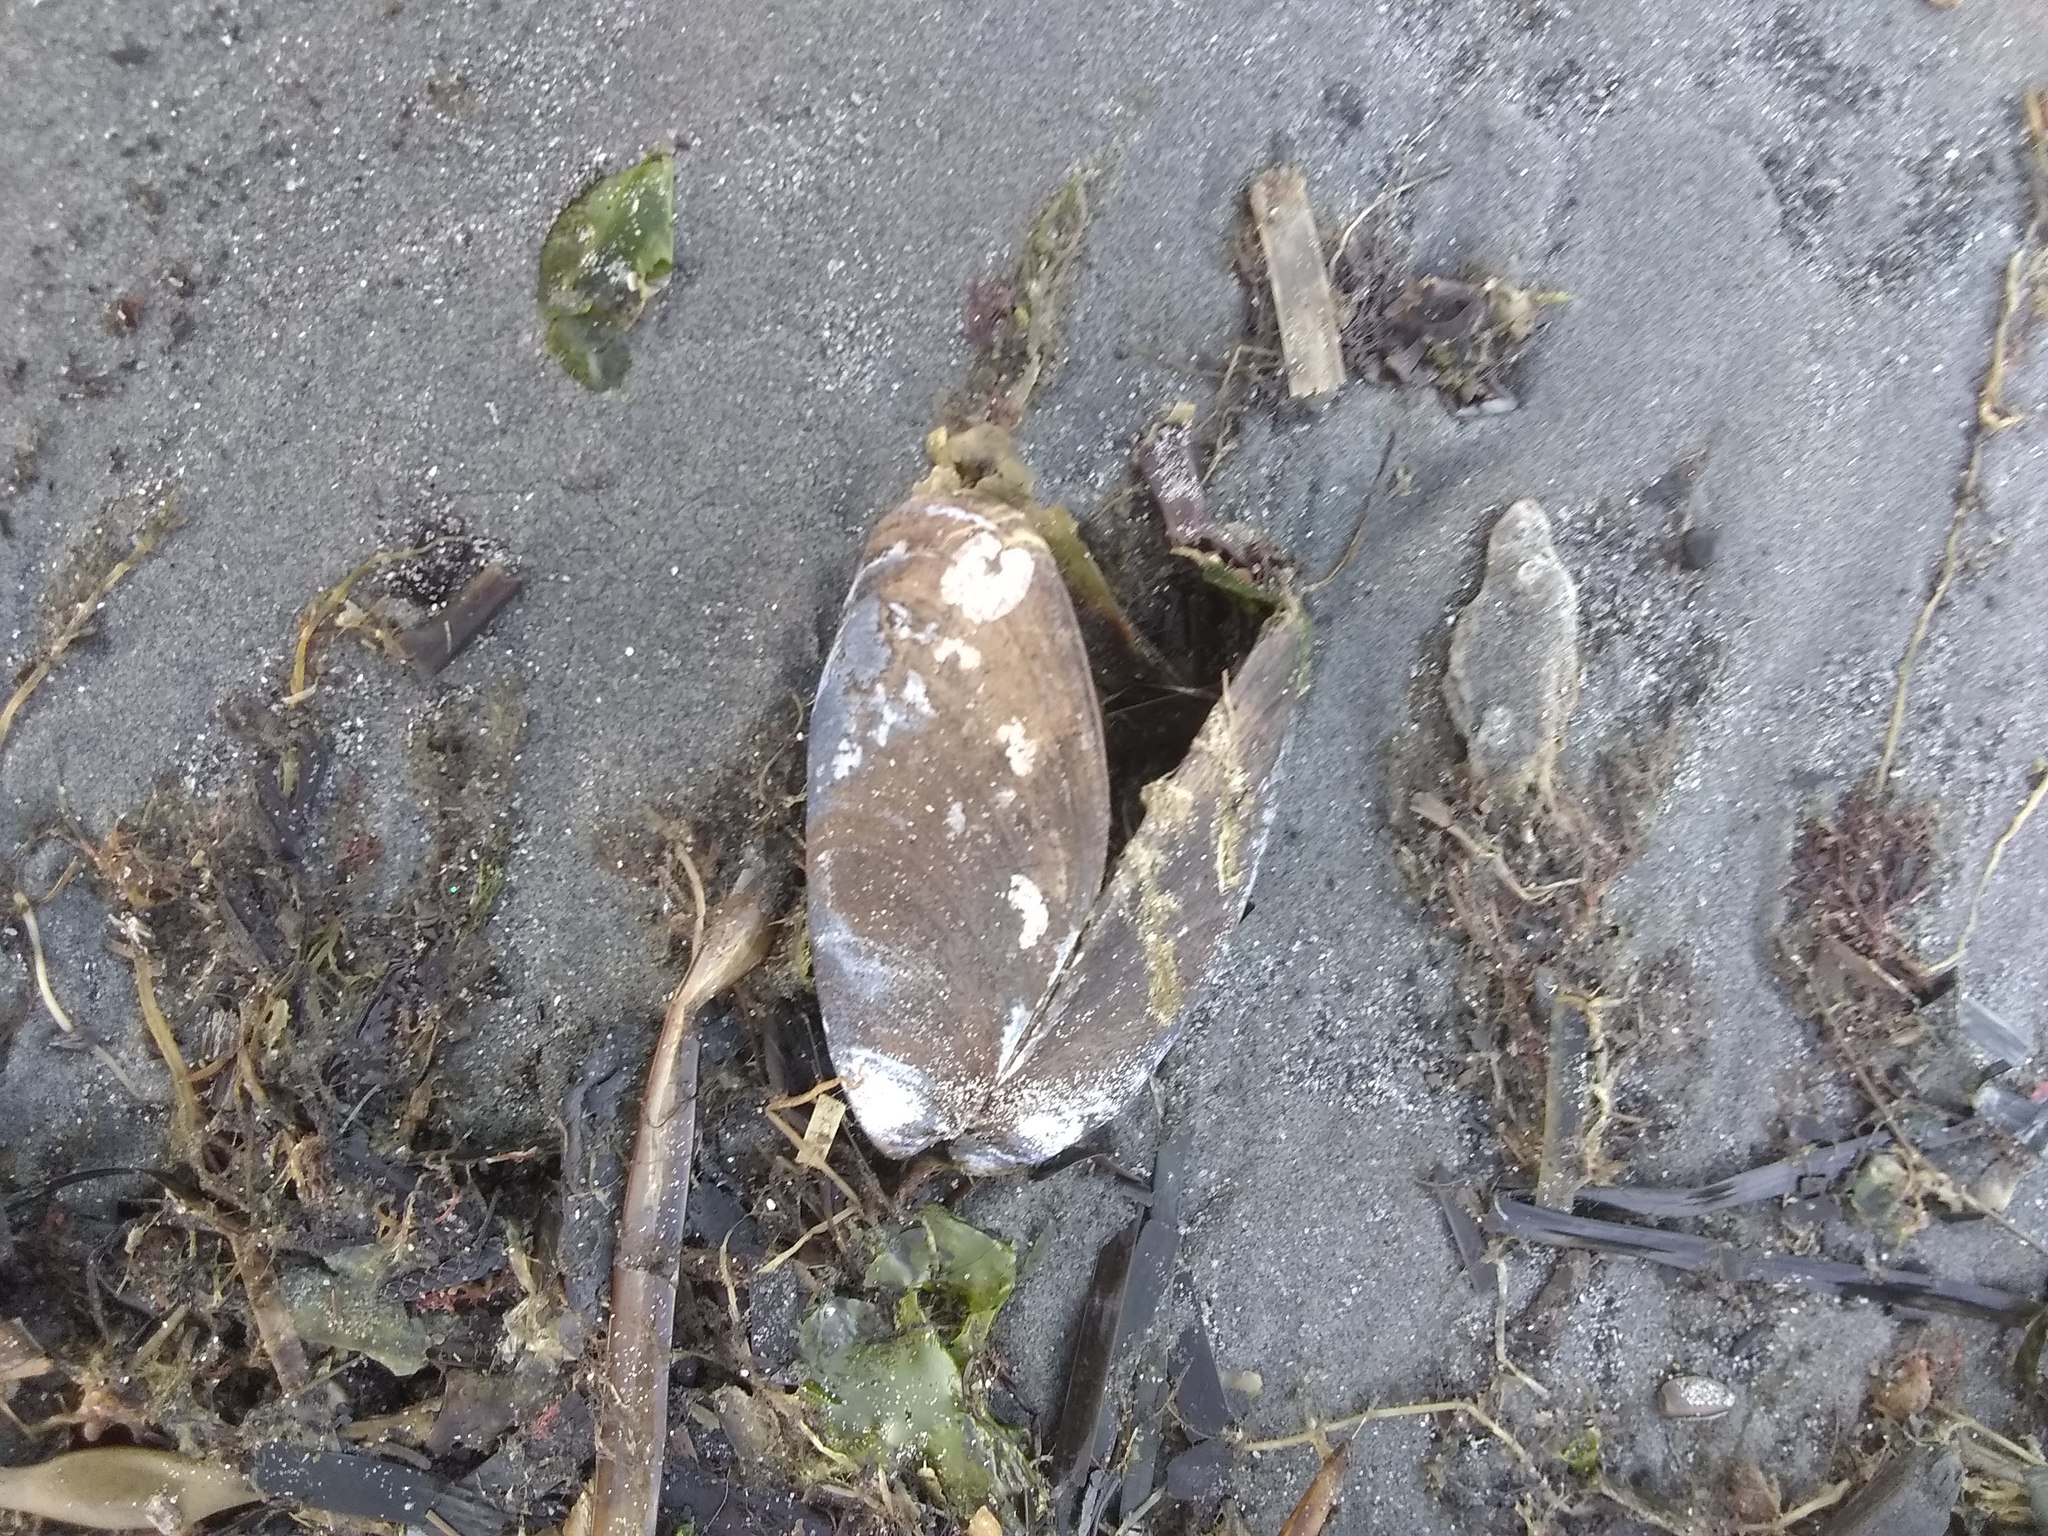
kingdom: Animalia
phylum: Mollusca
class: Bivalvia
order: Mytilida
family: Mytilidae
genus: Mytilus
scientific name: Mytilus edulis
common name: Blue mussel
